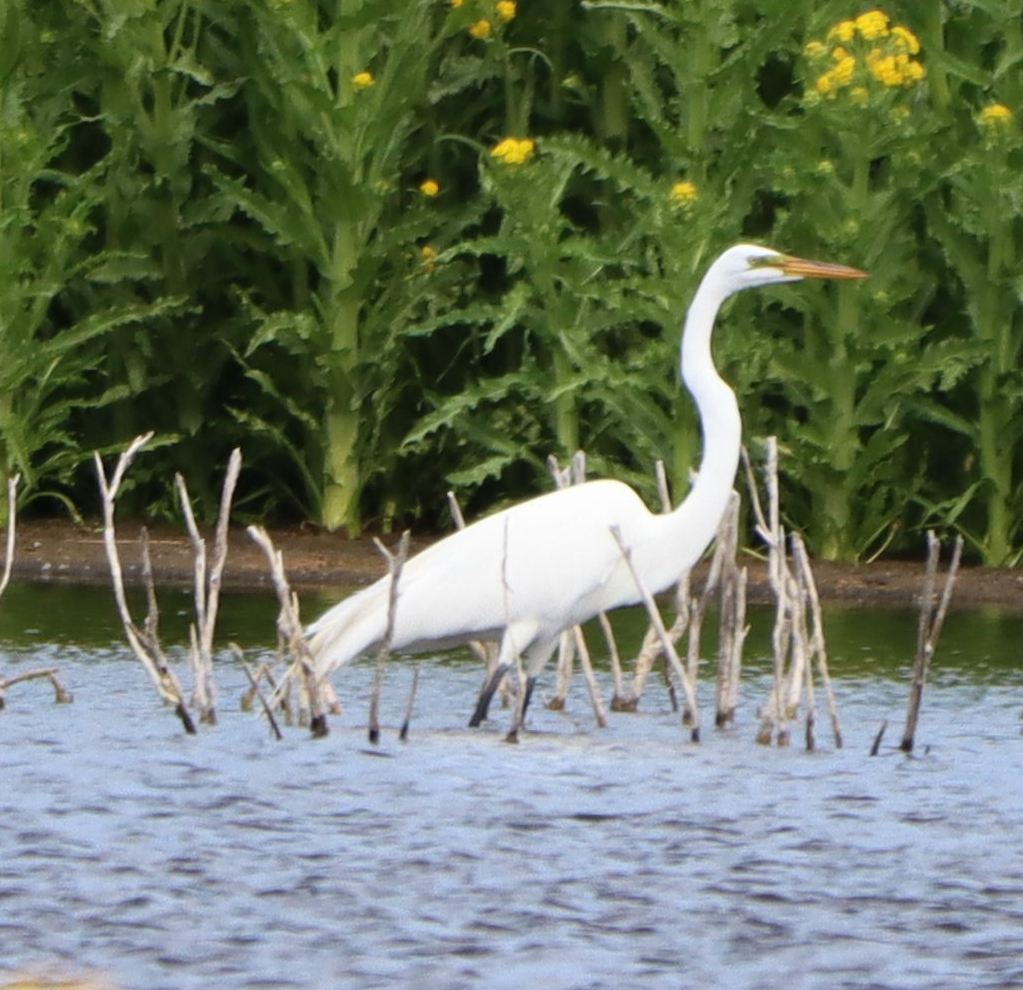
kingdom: Animalia
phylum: Chordata
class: Aves
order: Pelecaniformes
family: Ardeidae
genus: Ardea
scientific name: Ardea alba
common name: Great egret
